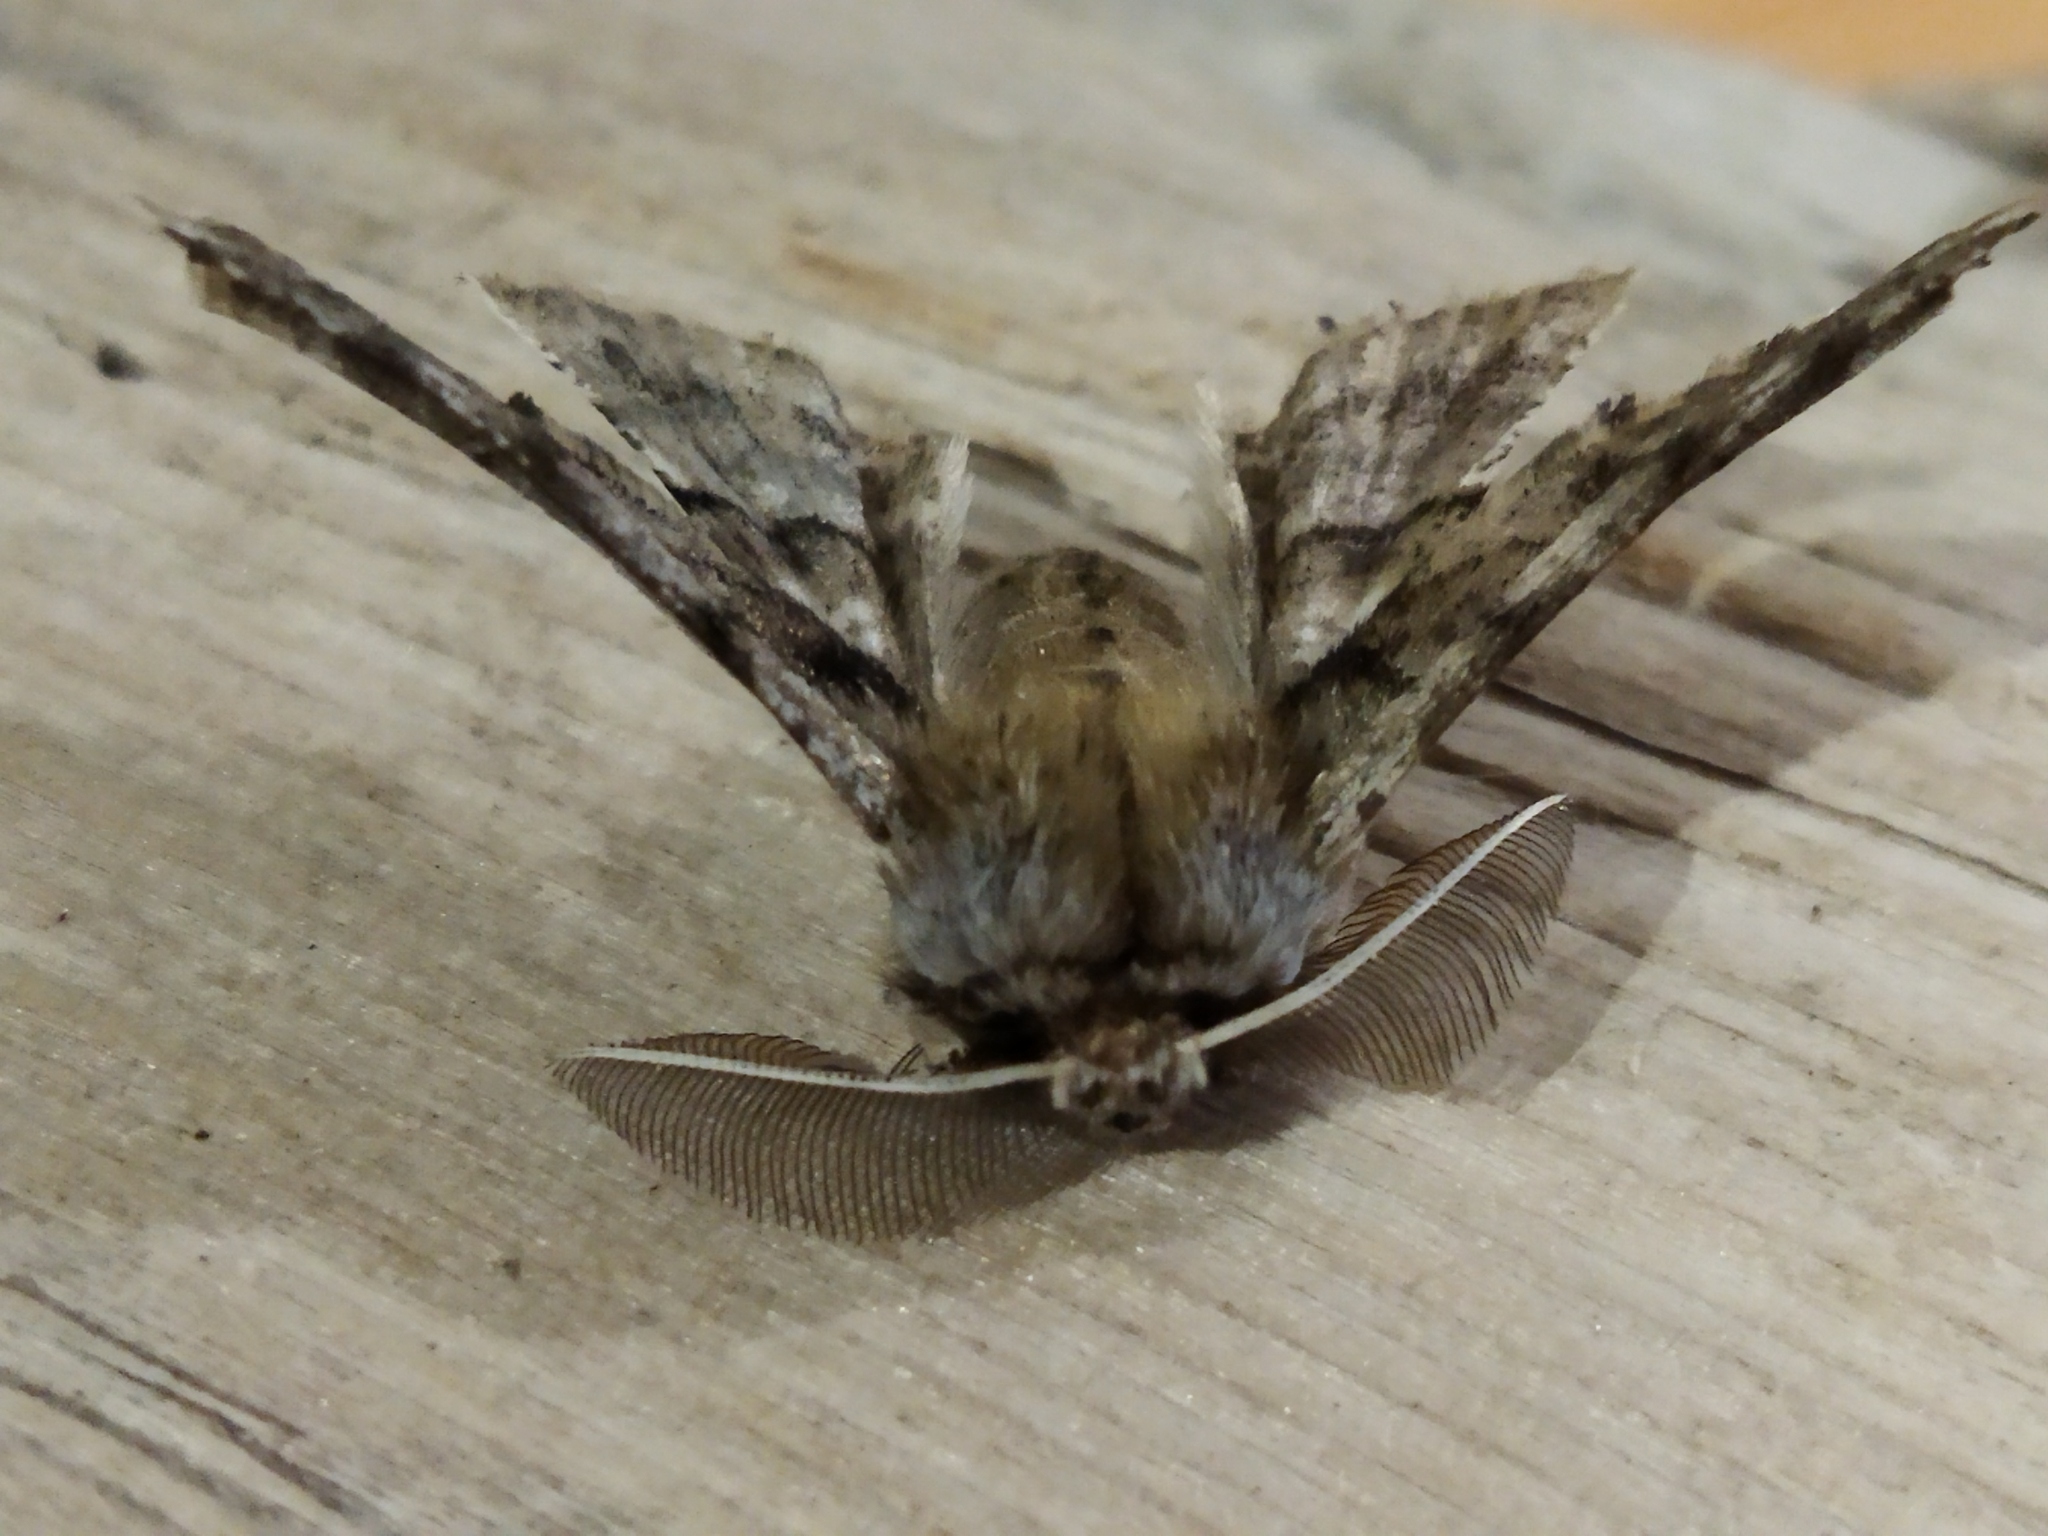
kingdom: Animalia
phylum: Arthropoda
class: Insecta
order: Lepidoptera
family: Geometridae
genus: Apochima
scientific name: Apochima flabellaria
